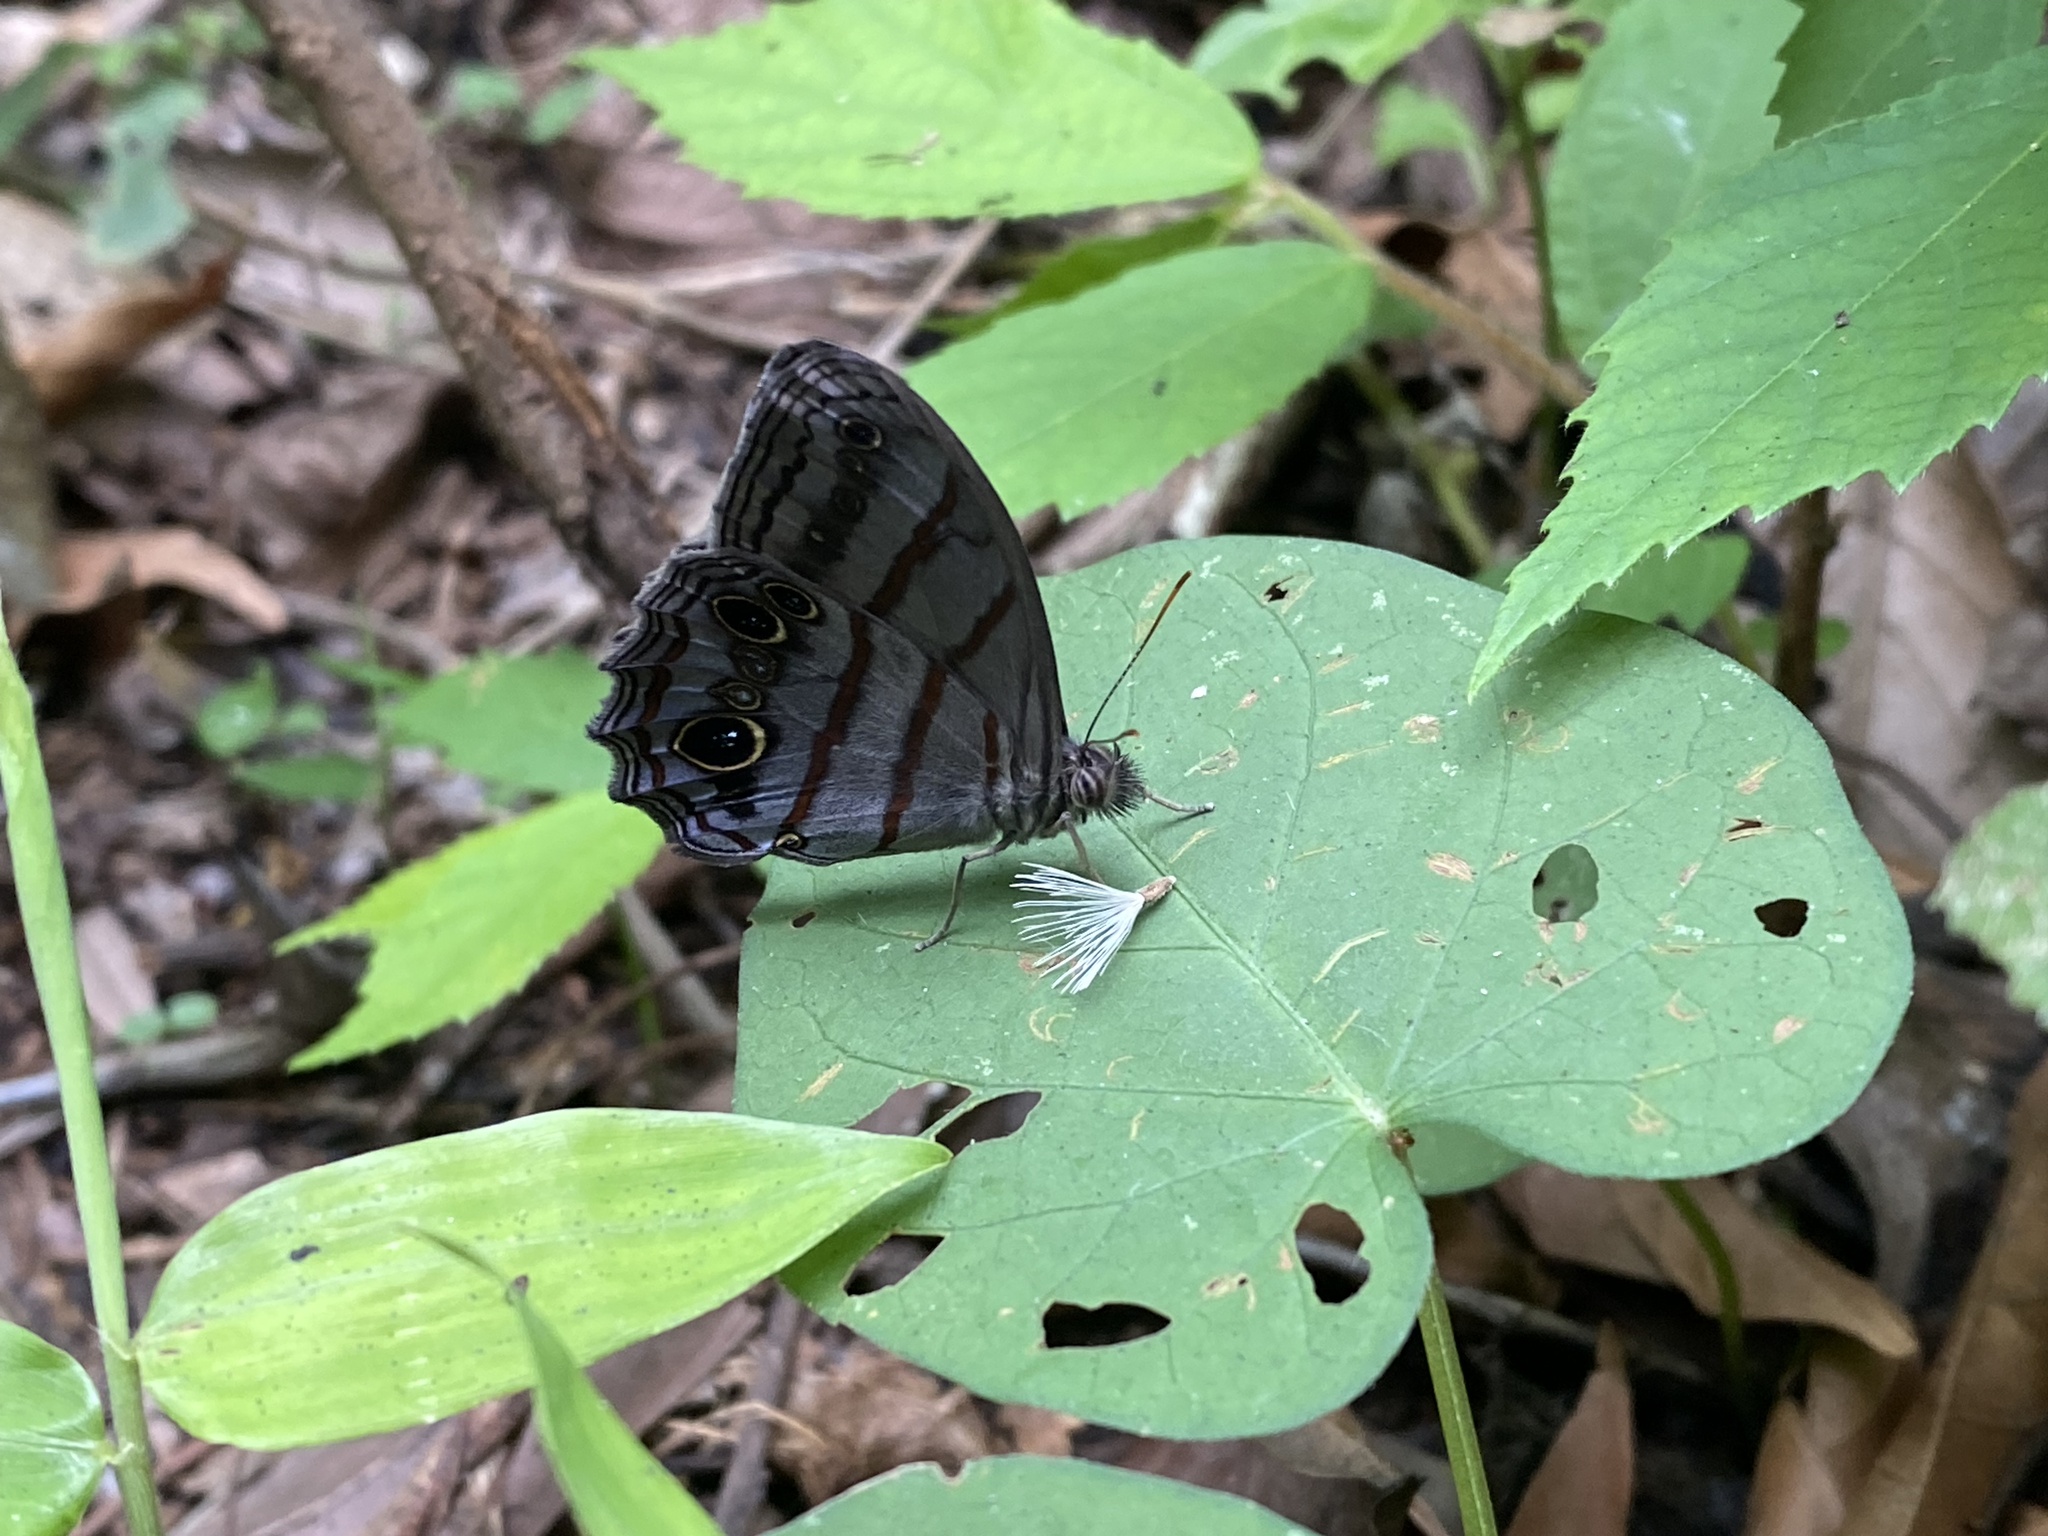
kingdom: Animalia
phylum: Arthropoda
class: Insecta
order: Lepidoptera
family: Nymphalidae
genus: Magneuptychia
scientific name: Magneuptychia libye
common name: Blue-gray satyr
